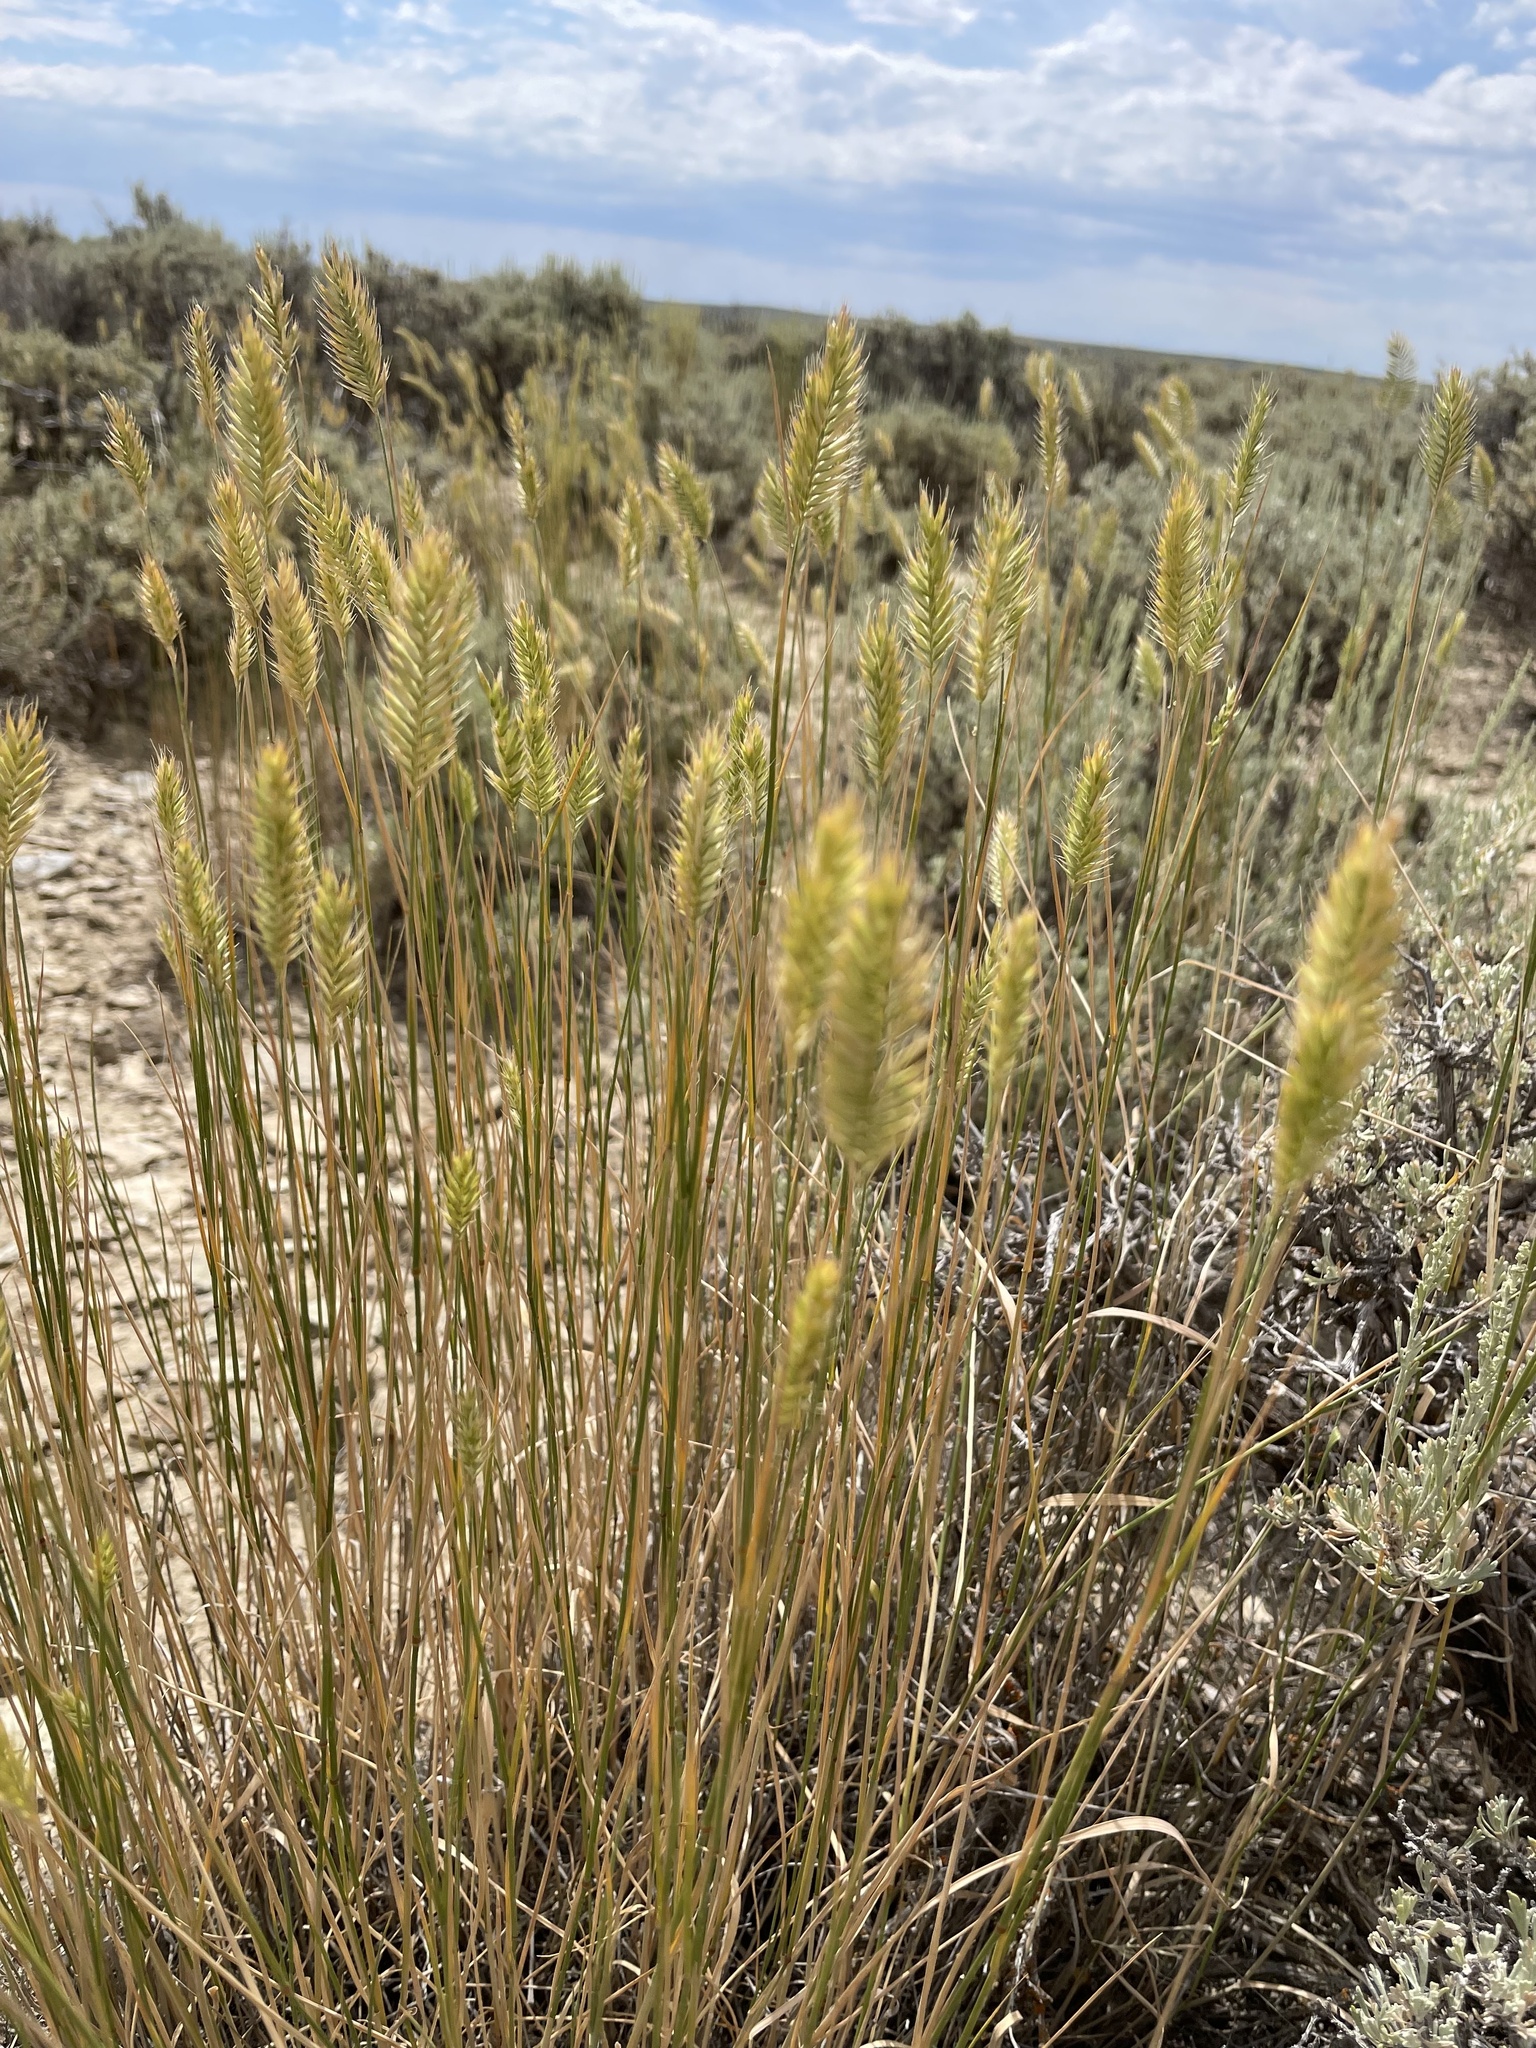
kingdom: Plantae
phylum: Tracheophyta
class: Liliopsida
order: Poales
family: Poaceae
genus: Agropyron
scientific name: Agropyron cristatum
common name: Crested wheatgrass
